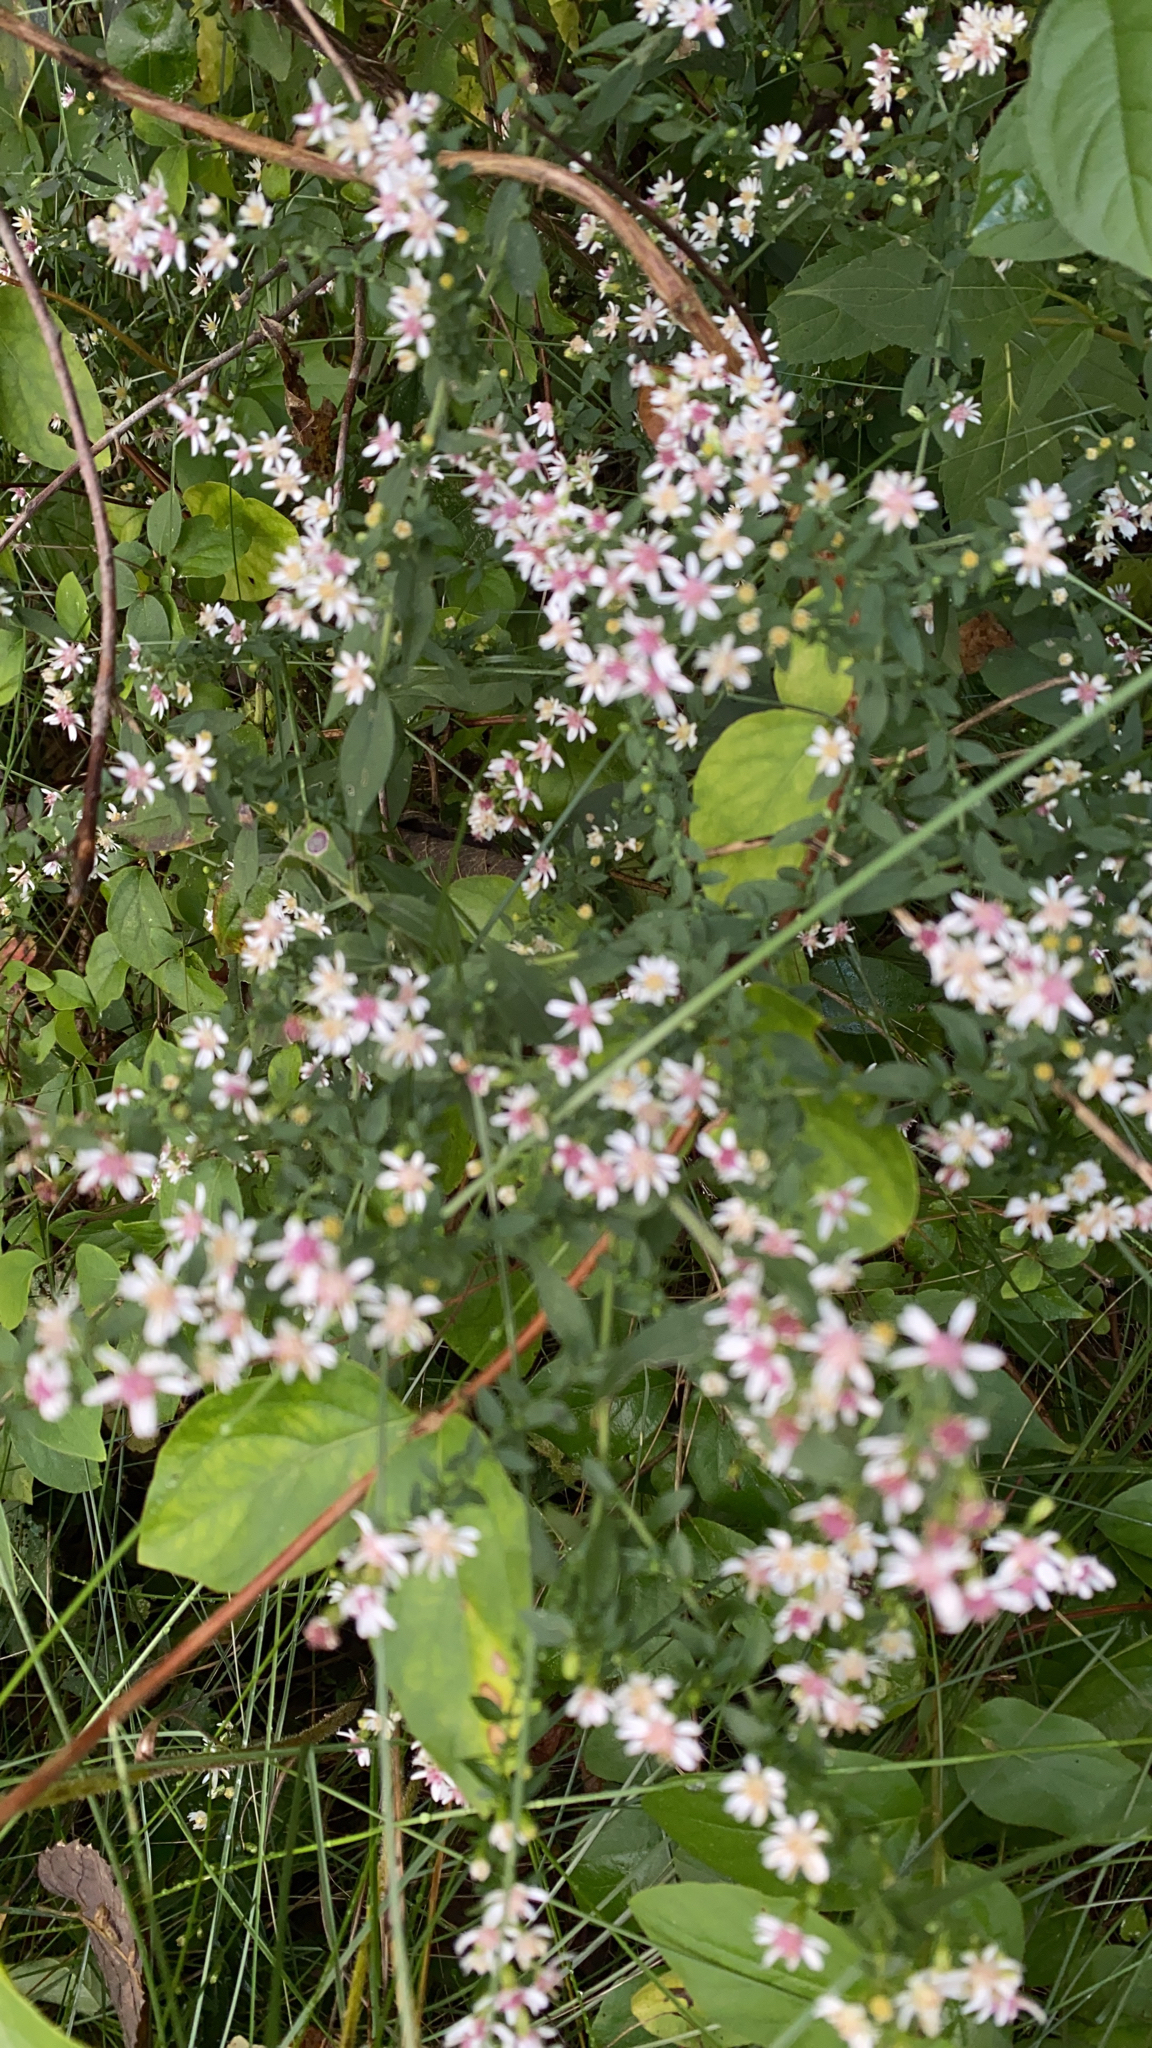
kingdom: Plantae
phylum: Tracheophyta
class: Magnoliopsida
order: Asterales
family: Asteraceae
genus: Symphyotrichum
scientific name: Symphyotrichum lateriflorum
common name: Calico aster
